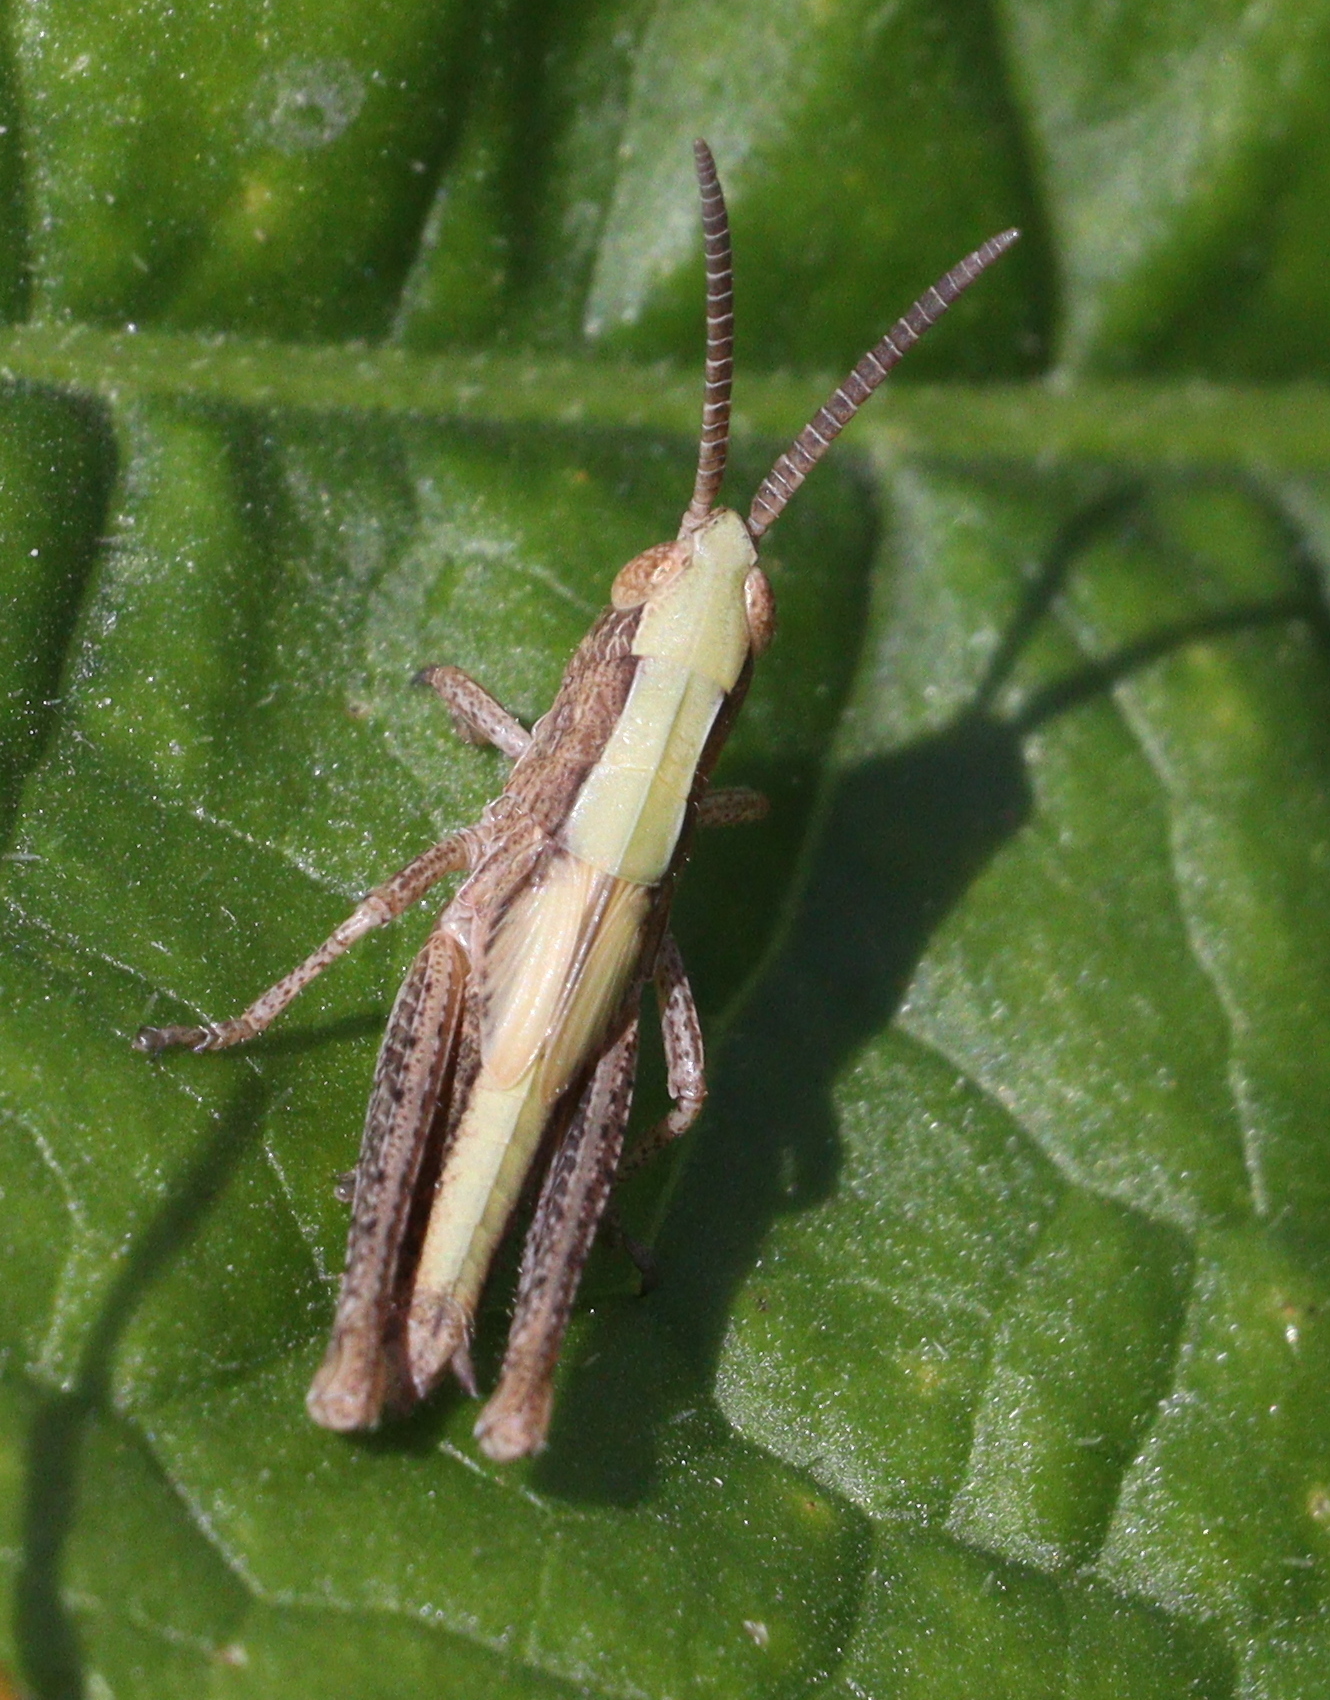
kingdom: Animalia
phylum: Arthropoda
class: Insecta
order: Orthoptera
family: Acrididae
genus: Chorthippus
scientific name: Chorthippus dorsatus
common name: Steppe grasshopper
